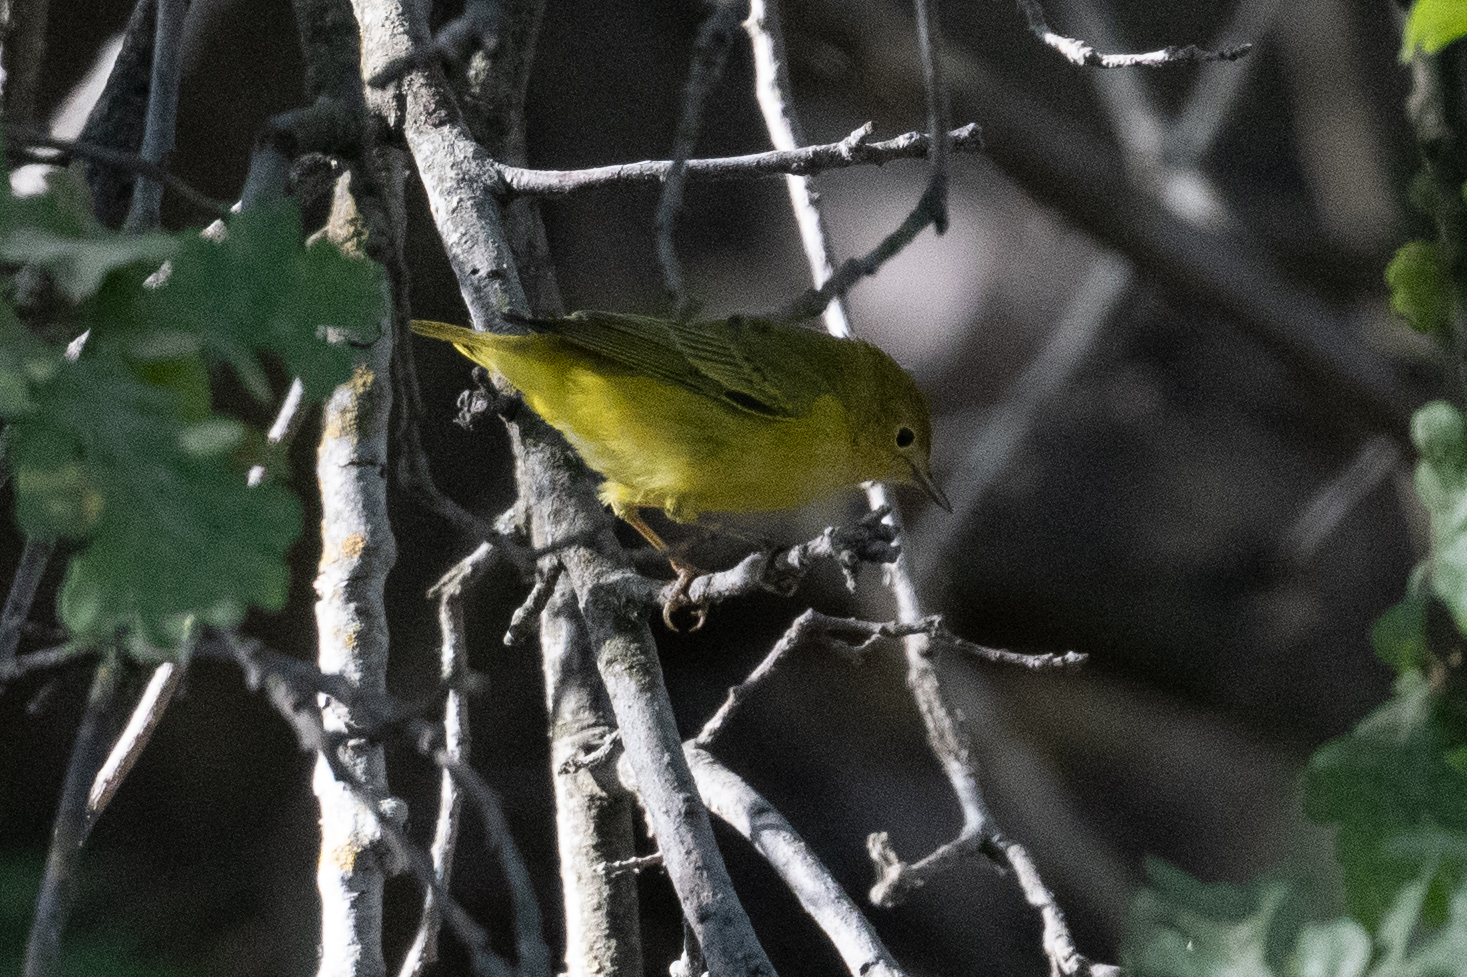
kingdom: Animalia
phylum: Chordata
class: Aves
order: Passeriformes
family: Parulidae
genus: Setophaga
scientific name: Setophaga petechia
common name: Yellow warbler
